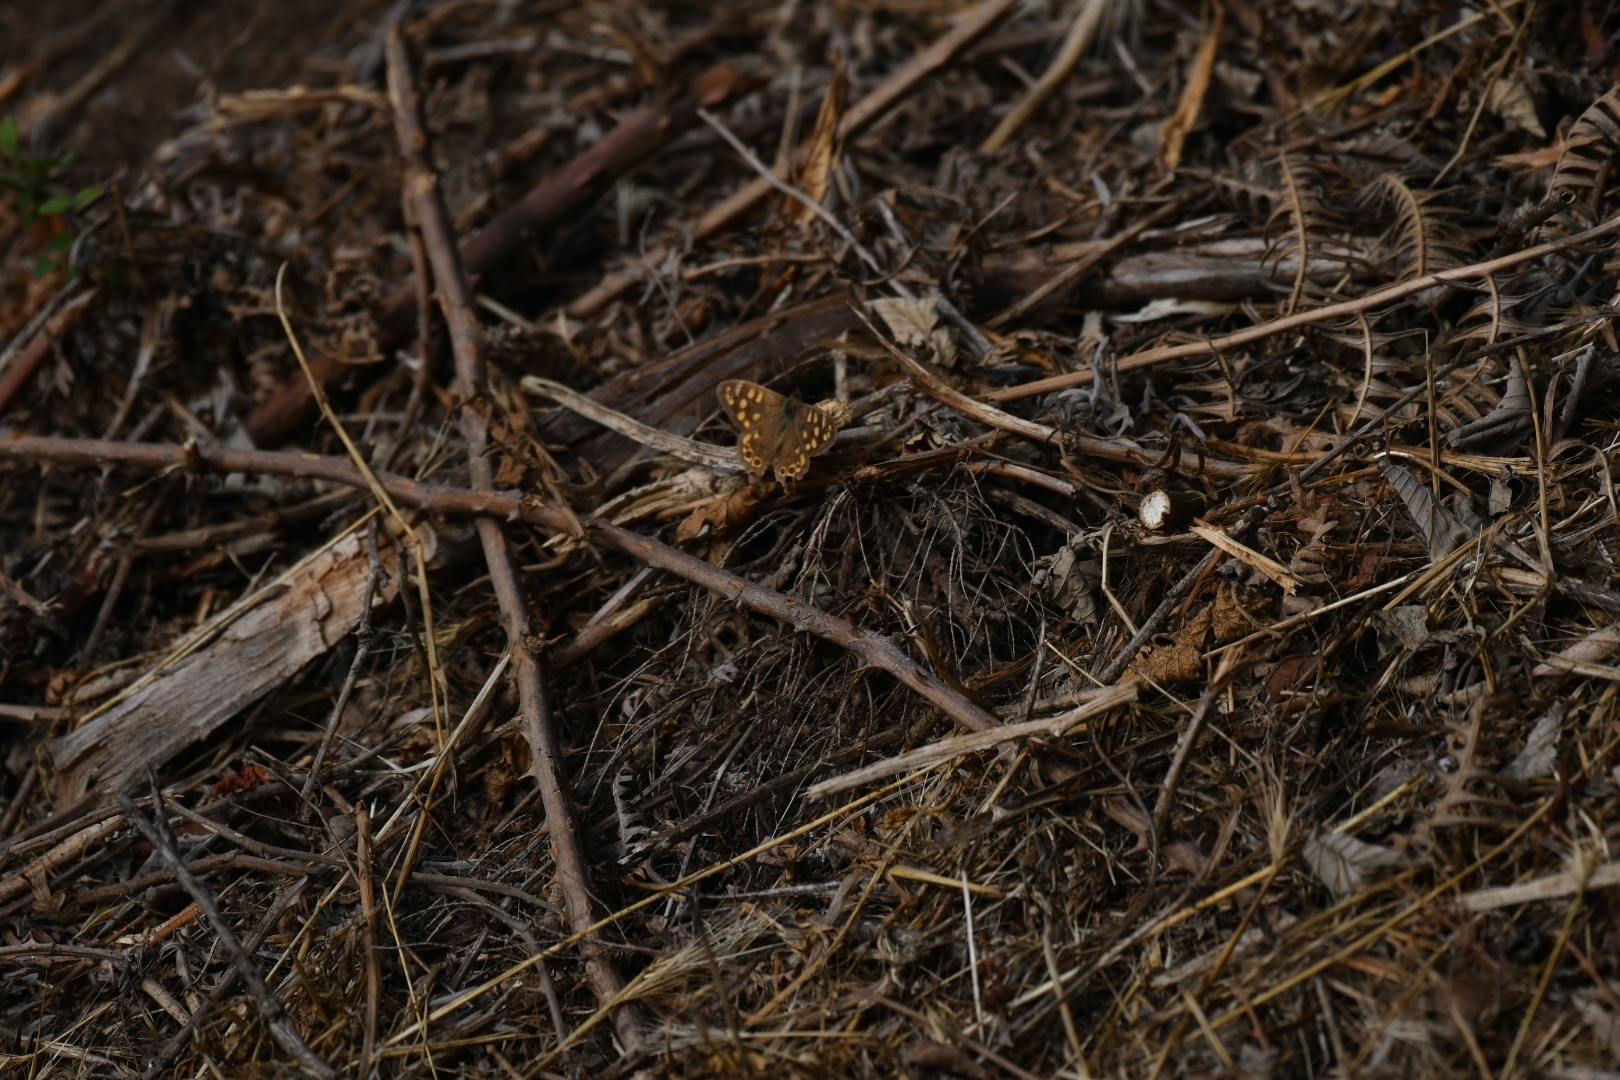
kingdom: Animalia
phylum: Arthropoda
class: Insecta
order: Lepidoptera
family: Nymphalidae
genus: Pararge
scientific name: Pararge aegeria
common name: Speckled wood
